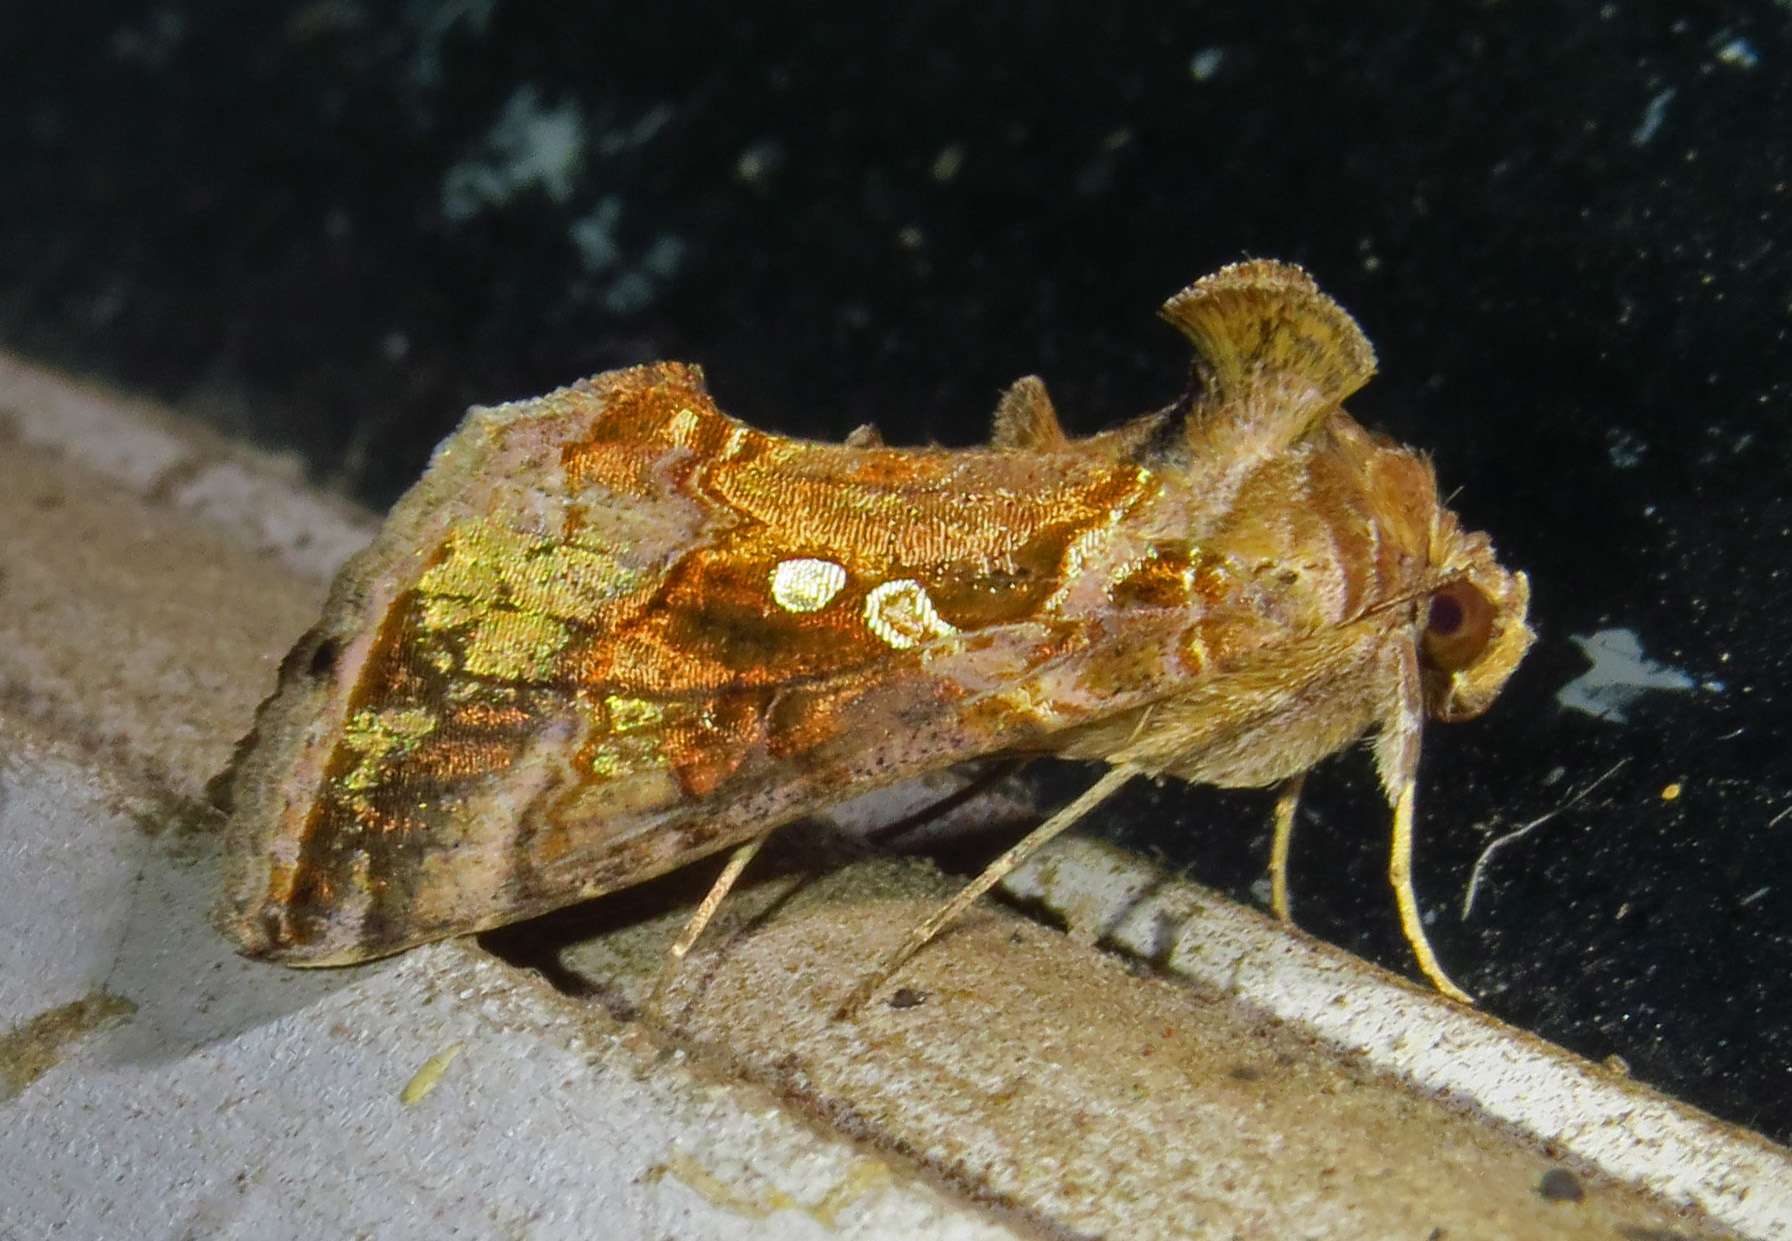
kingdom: Animalia
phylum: Arthropoda
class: Insecta
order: Lepidoptera
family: Noctuidae
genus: Chrysodeixis
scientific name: Chrysodeixis includens
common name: Cutworm moth
